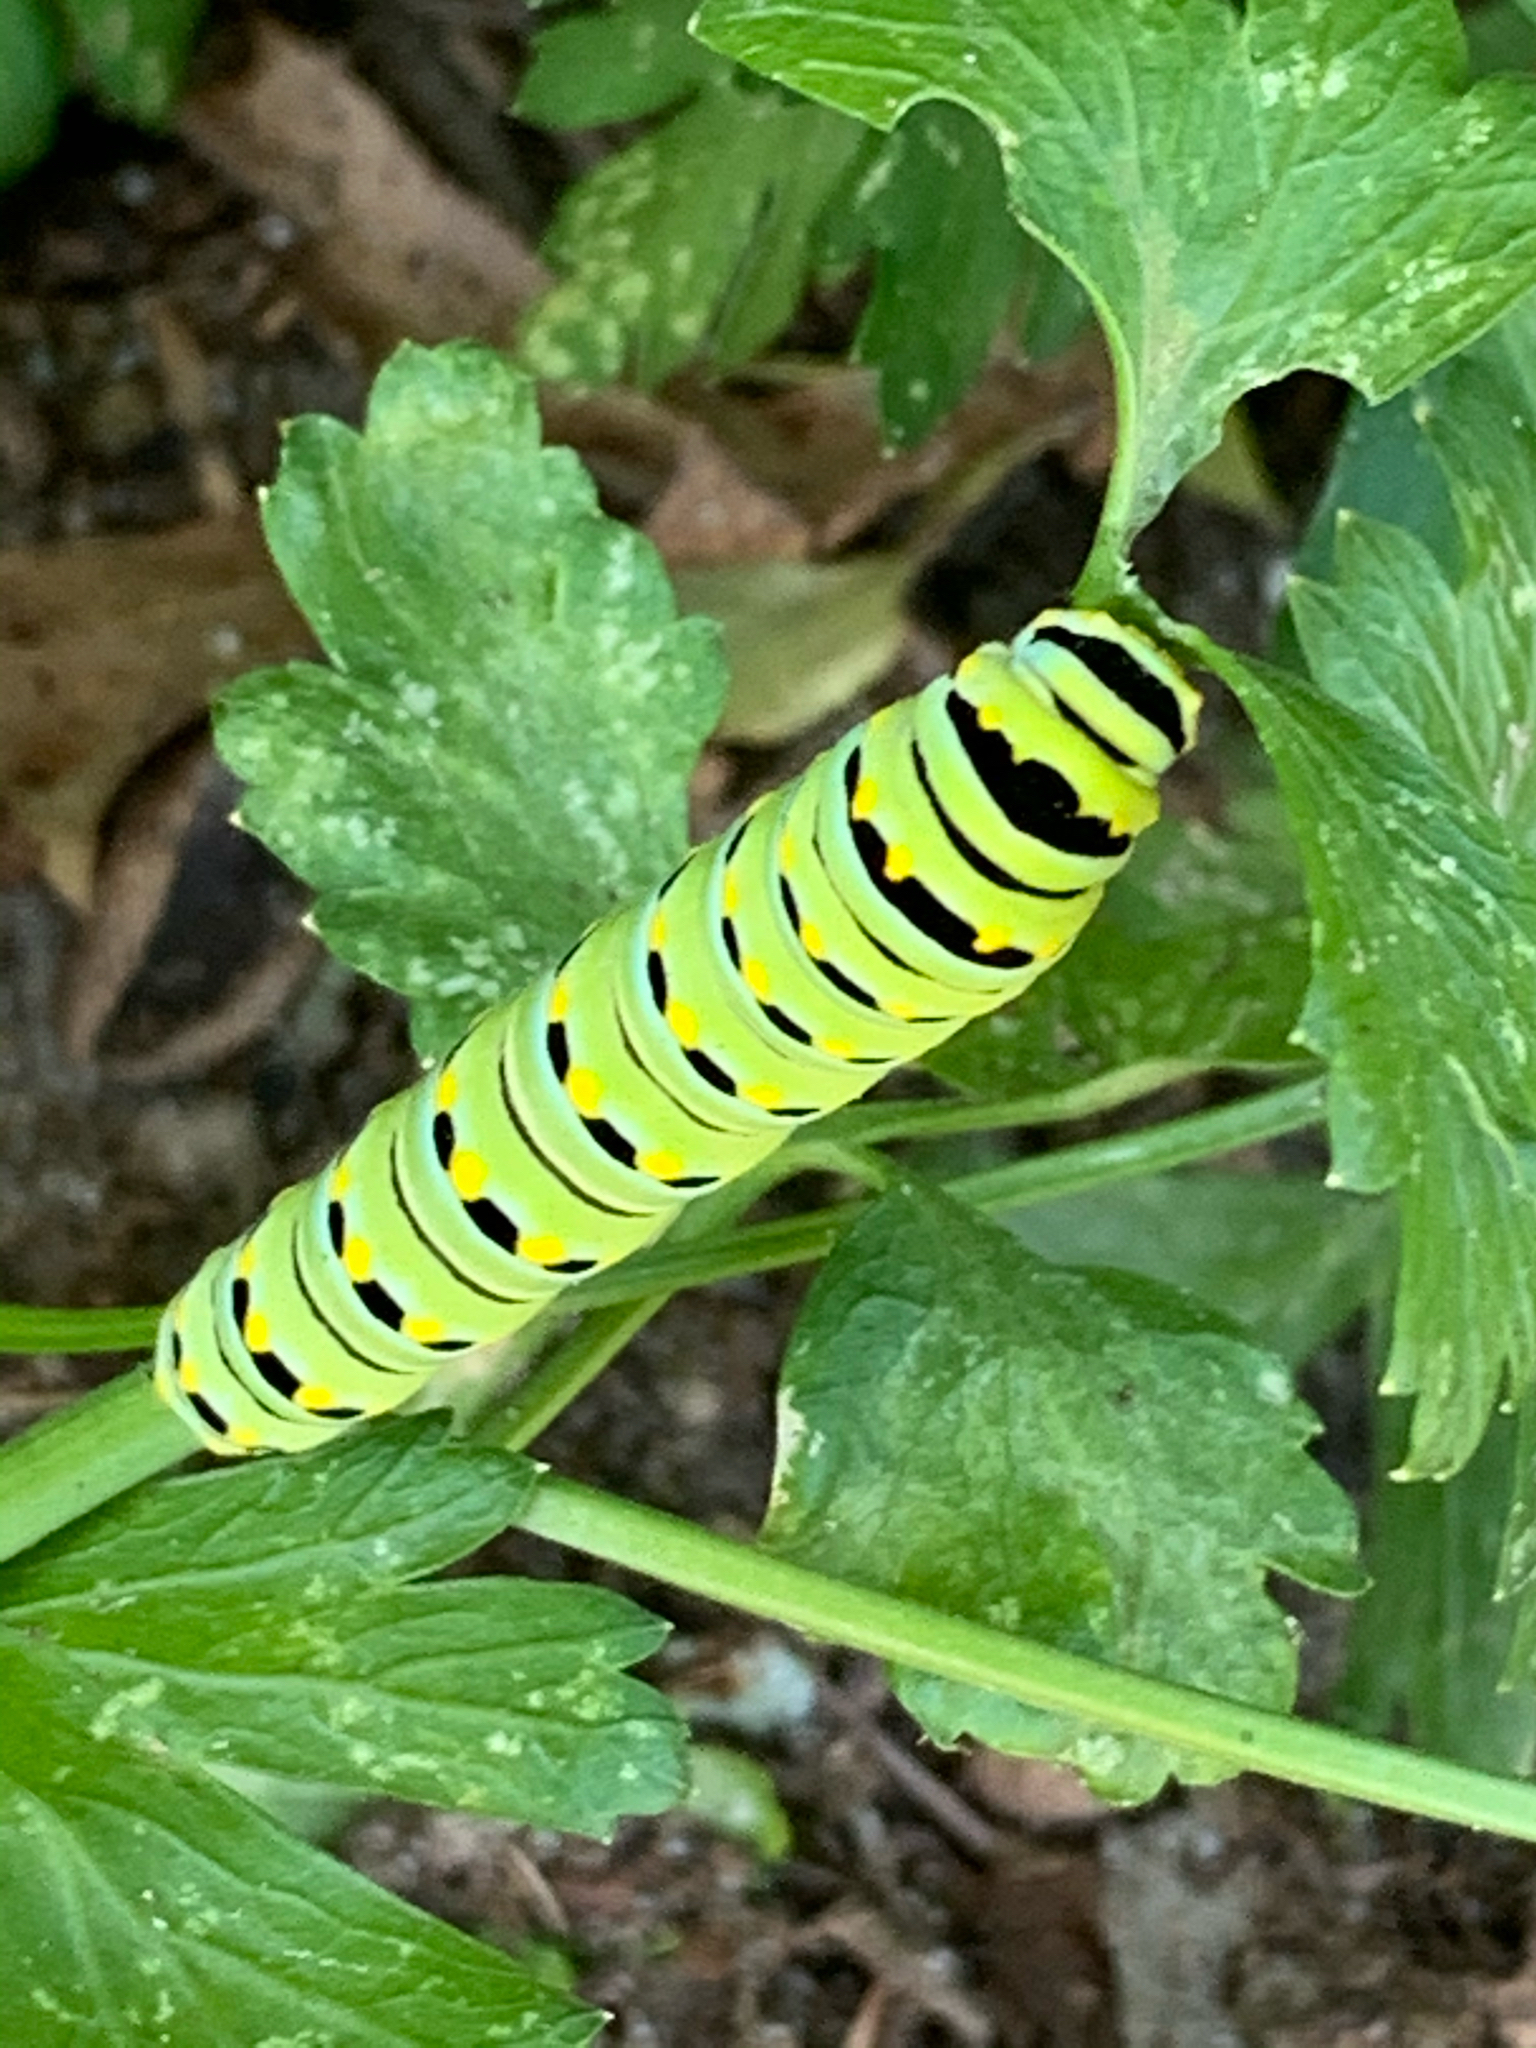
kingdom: Animalia
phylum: Arthropoda
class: Insecta
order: Lepidoptera
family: Papilionidae
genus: Papilio
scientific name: Papilio polyxenes
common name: Black swallowtail
